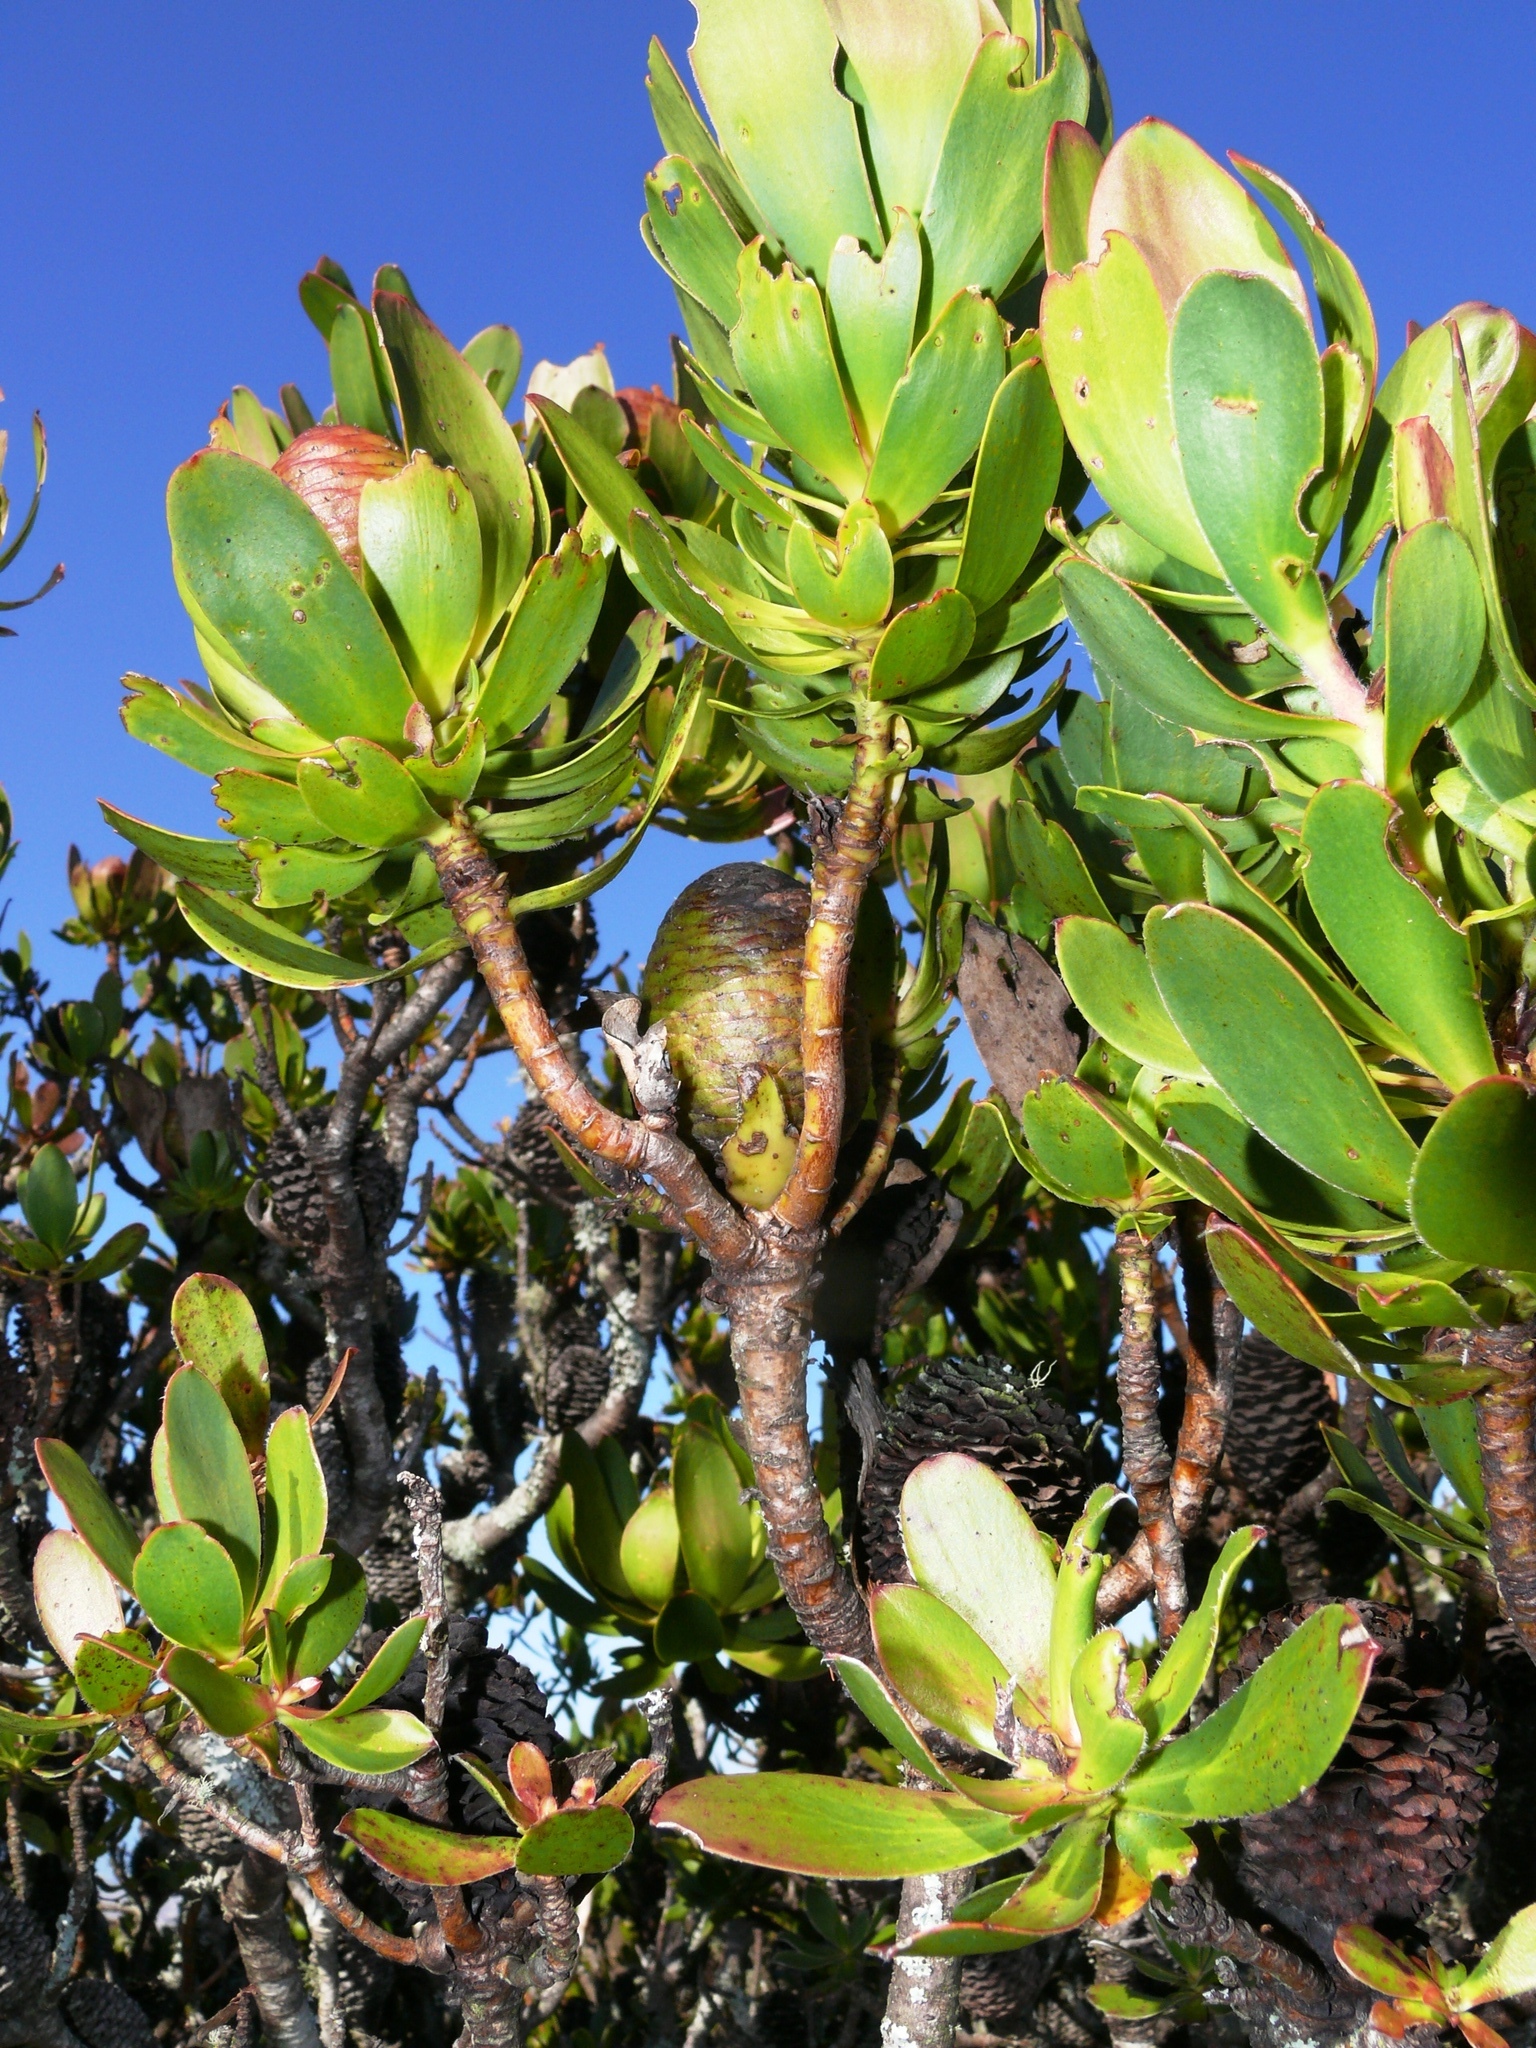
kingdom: Plantae
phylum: Tracheophyta
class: Magnoliopsida
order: Proteales
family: Proteaceae
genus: Leucadendron
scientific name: Leucadendron strobilinum
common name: Mountain rose
